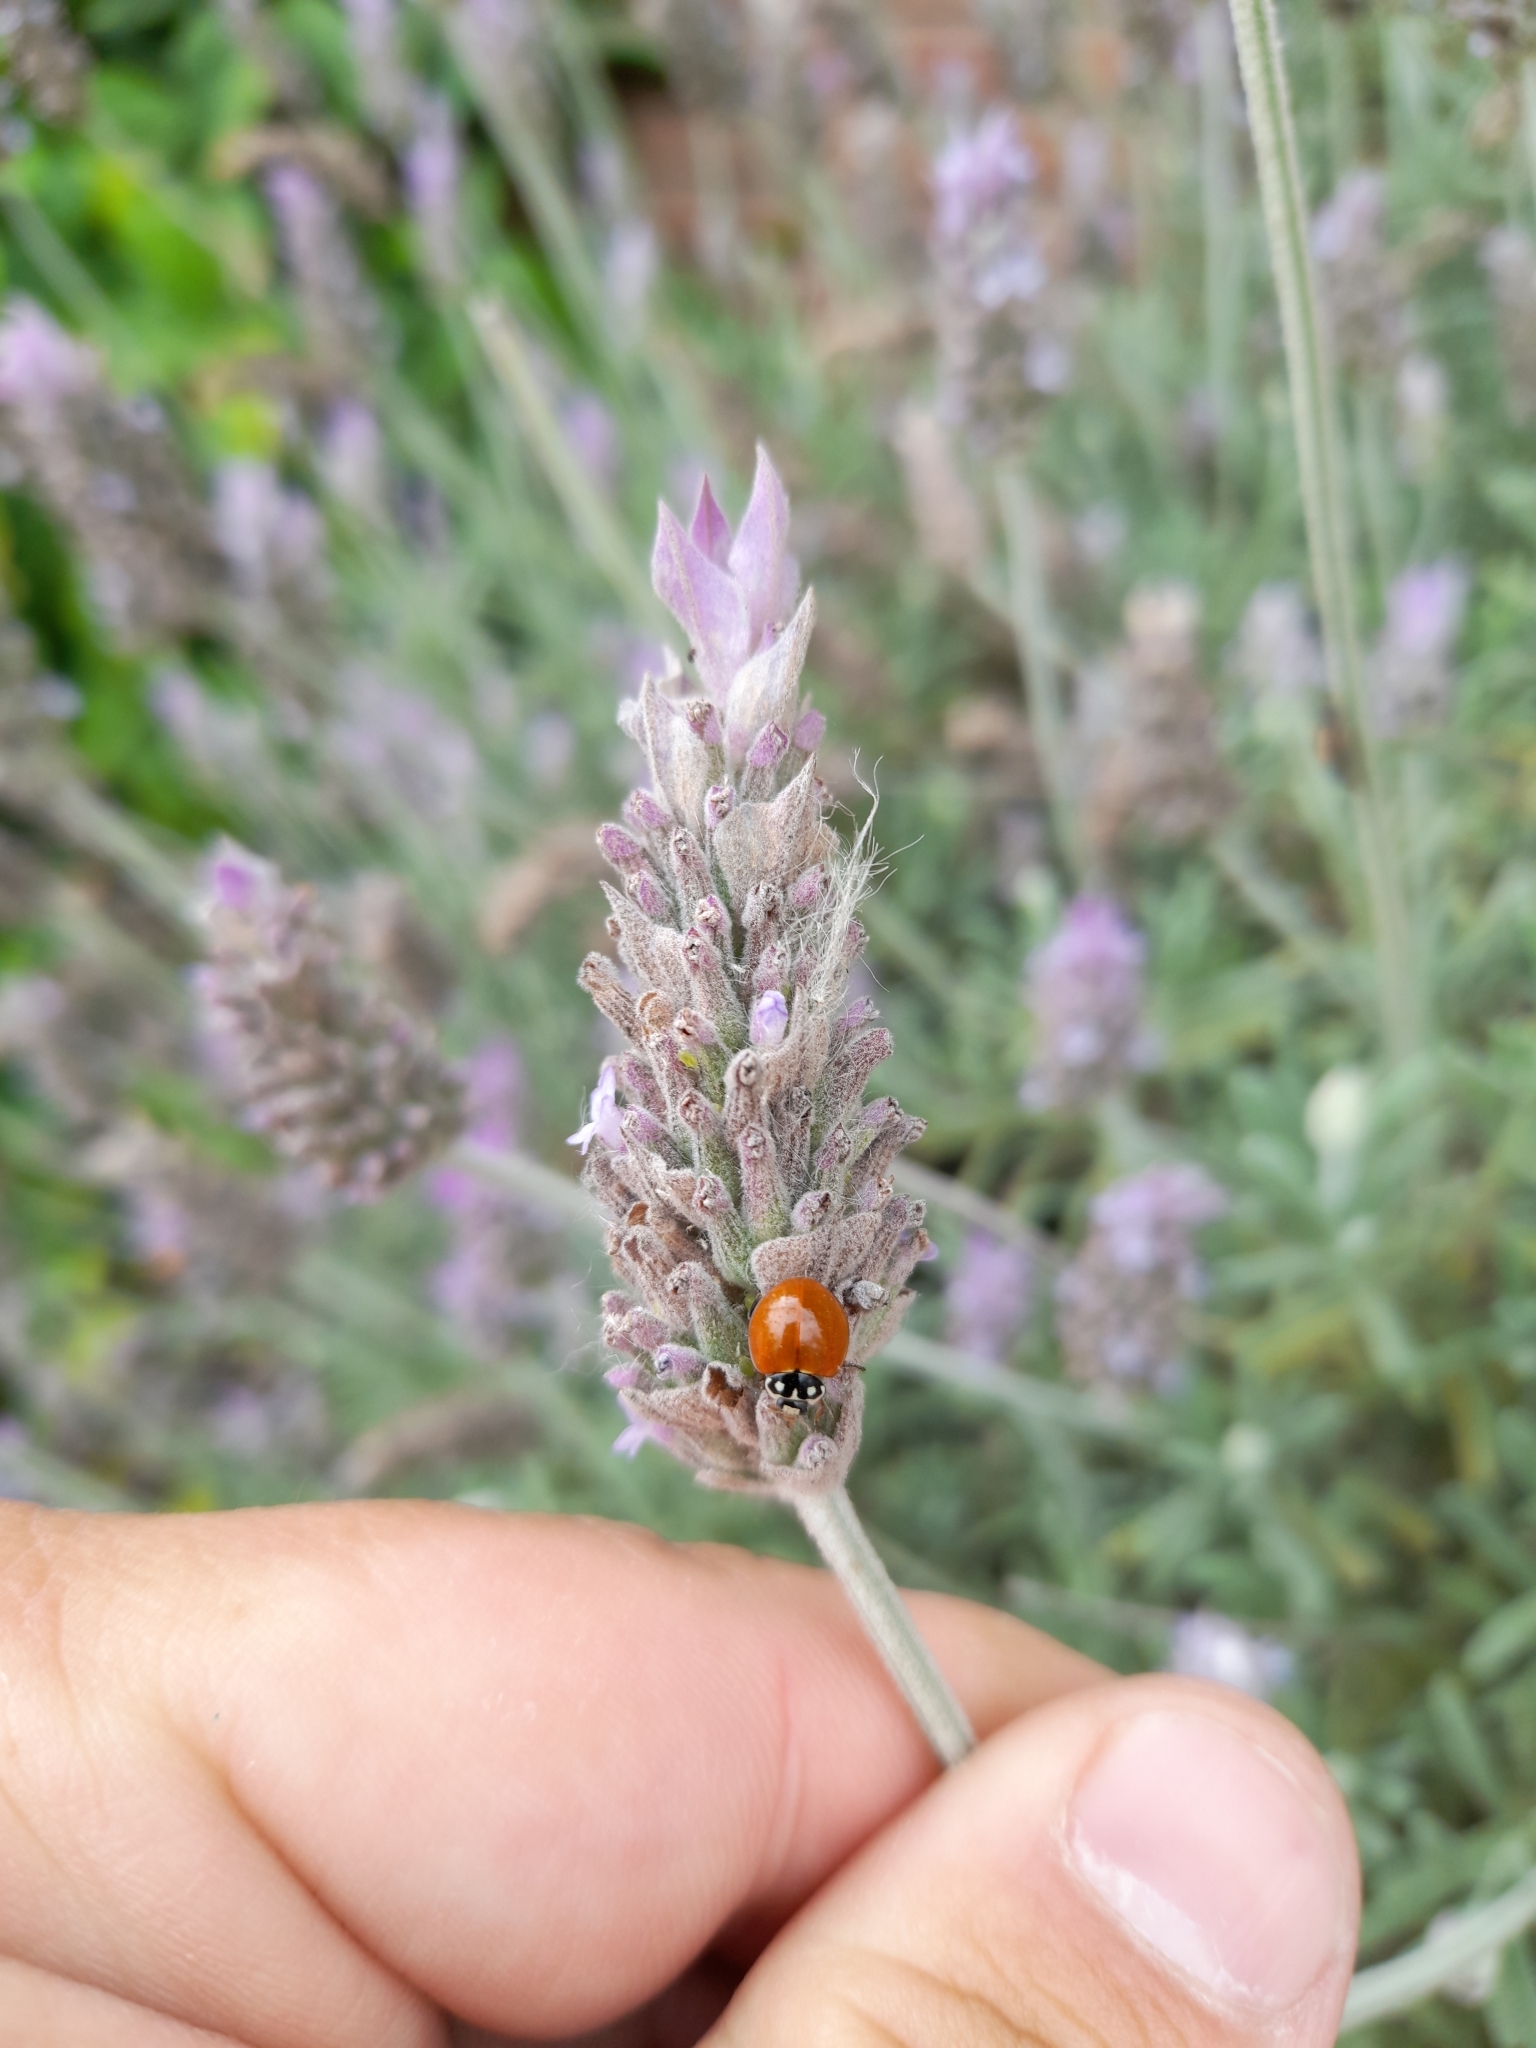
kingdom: Animalia
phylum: Arthropoda
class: Insecta
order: Coleoptera
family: Coccinellidae
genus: Cycloneda
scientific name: Cycloneda sanguinea
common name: Ladybird beetle
